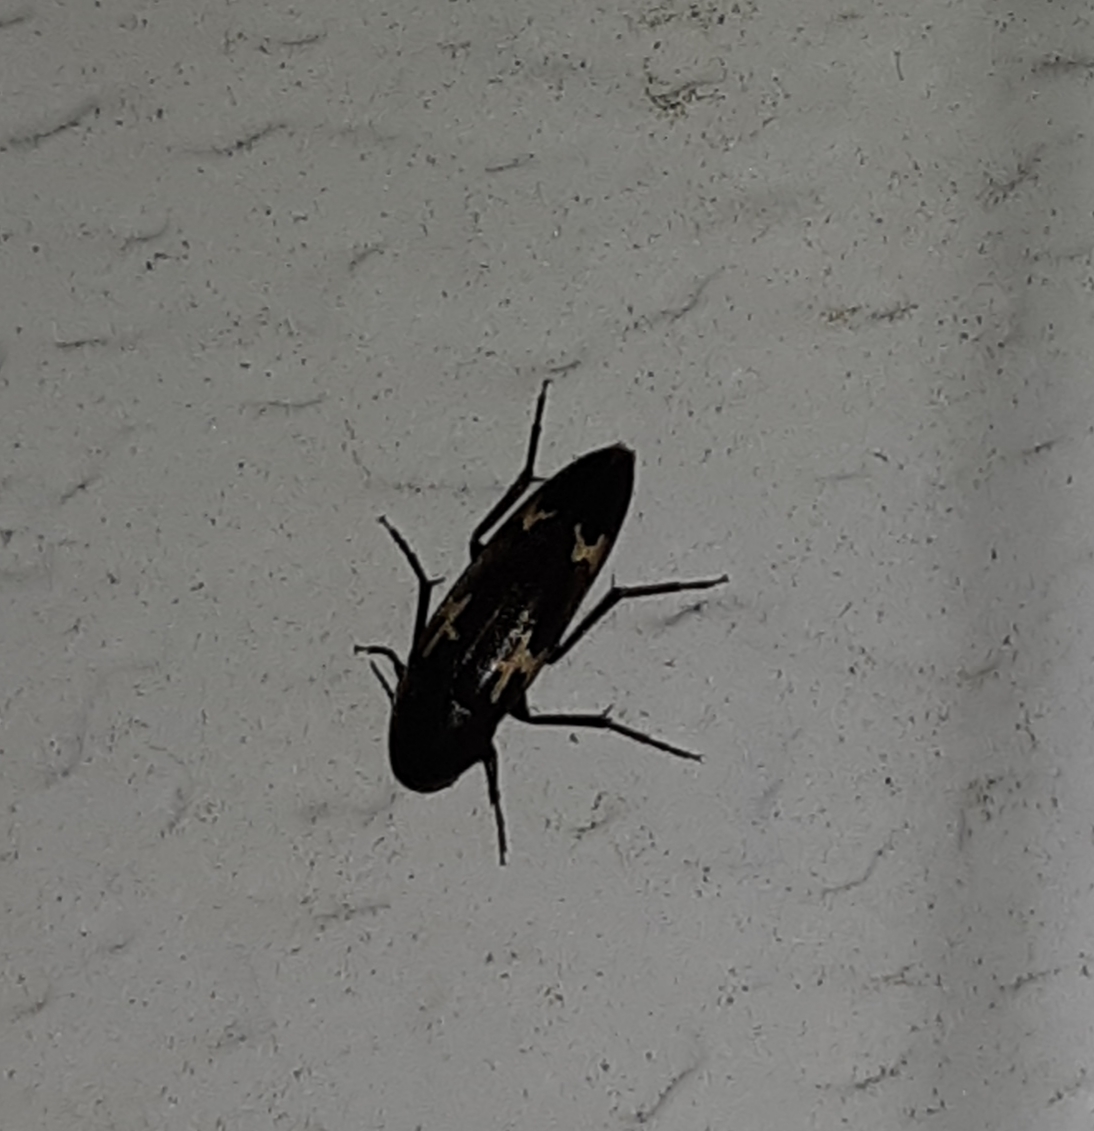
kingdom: Animalia
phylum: Arthropoda
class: Insecta
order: Coleoptera
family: Melandryidae
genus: Dircaea
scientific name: Dircaea liturata
